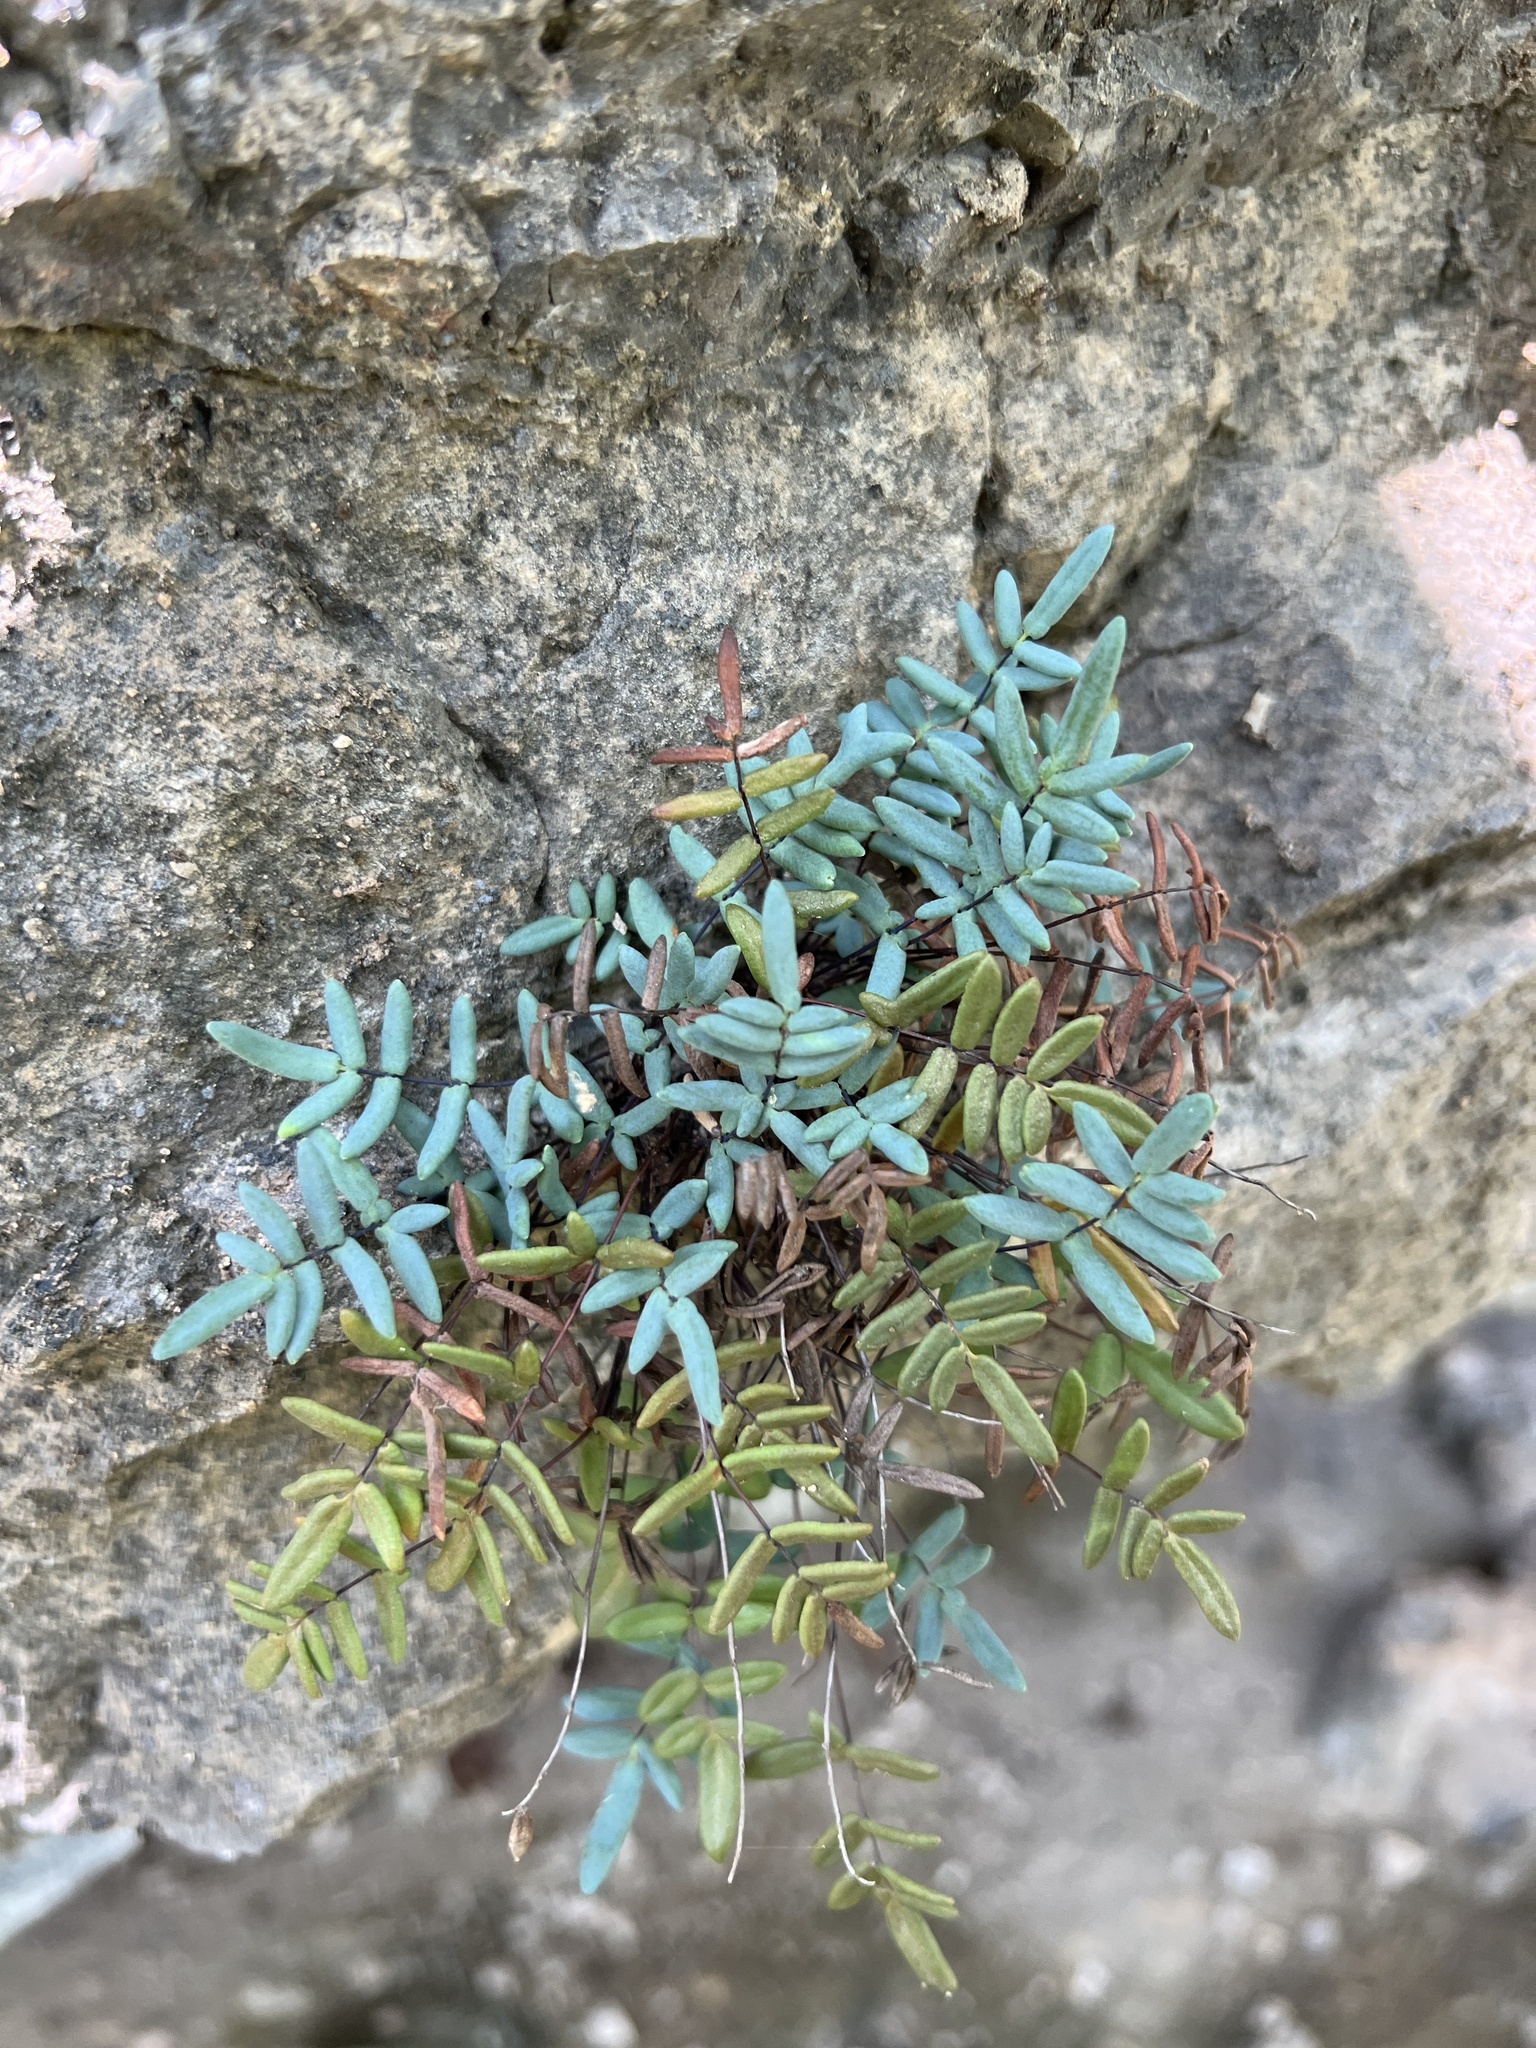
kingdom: Plantae
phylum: Tracheophyta
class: Polypodiopsida
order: Polypodiales
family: Pteridaceae
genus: Pellaea
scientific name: Pellaea glabella
